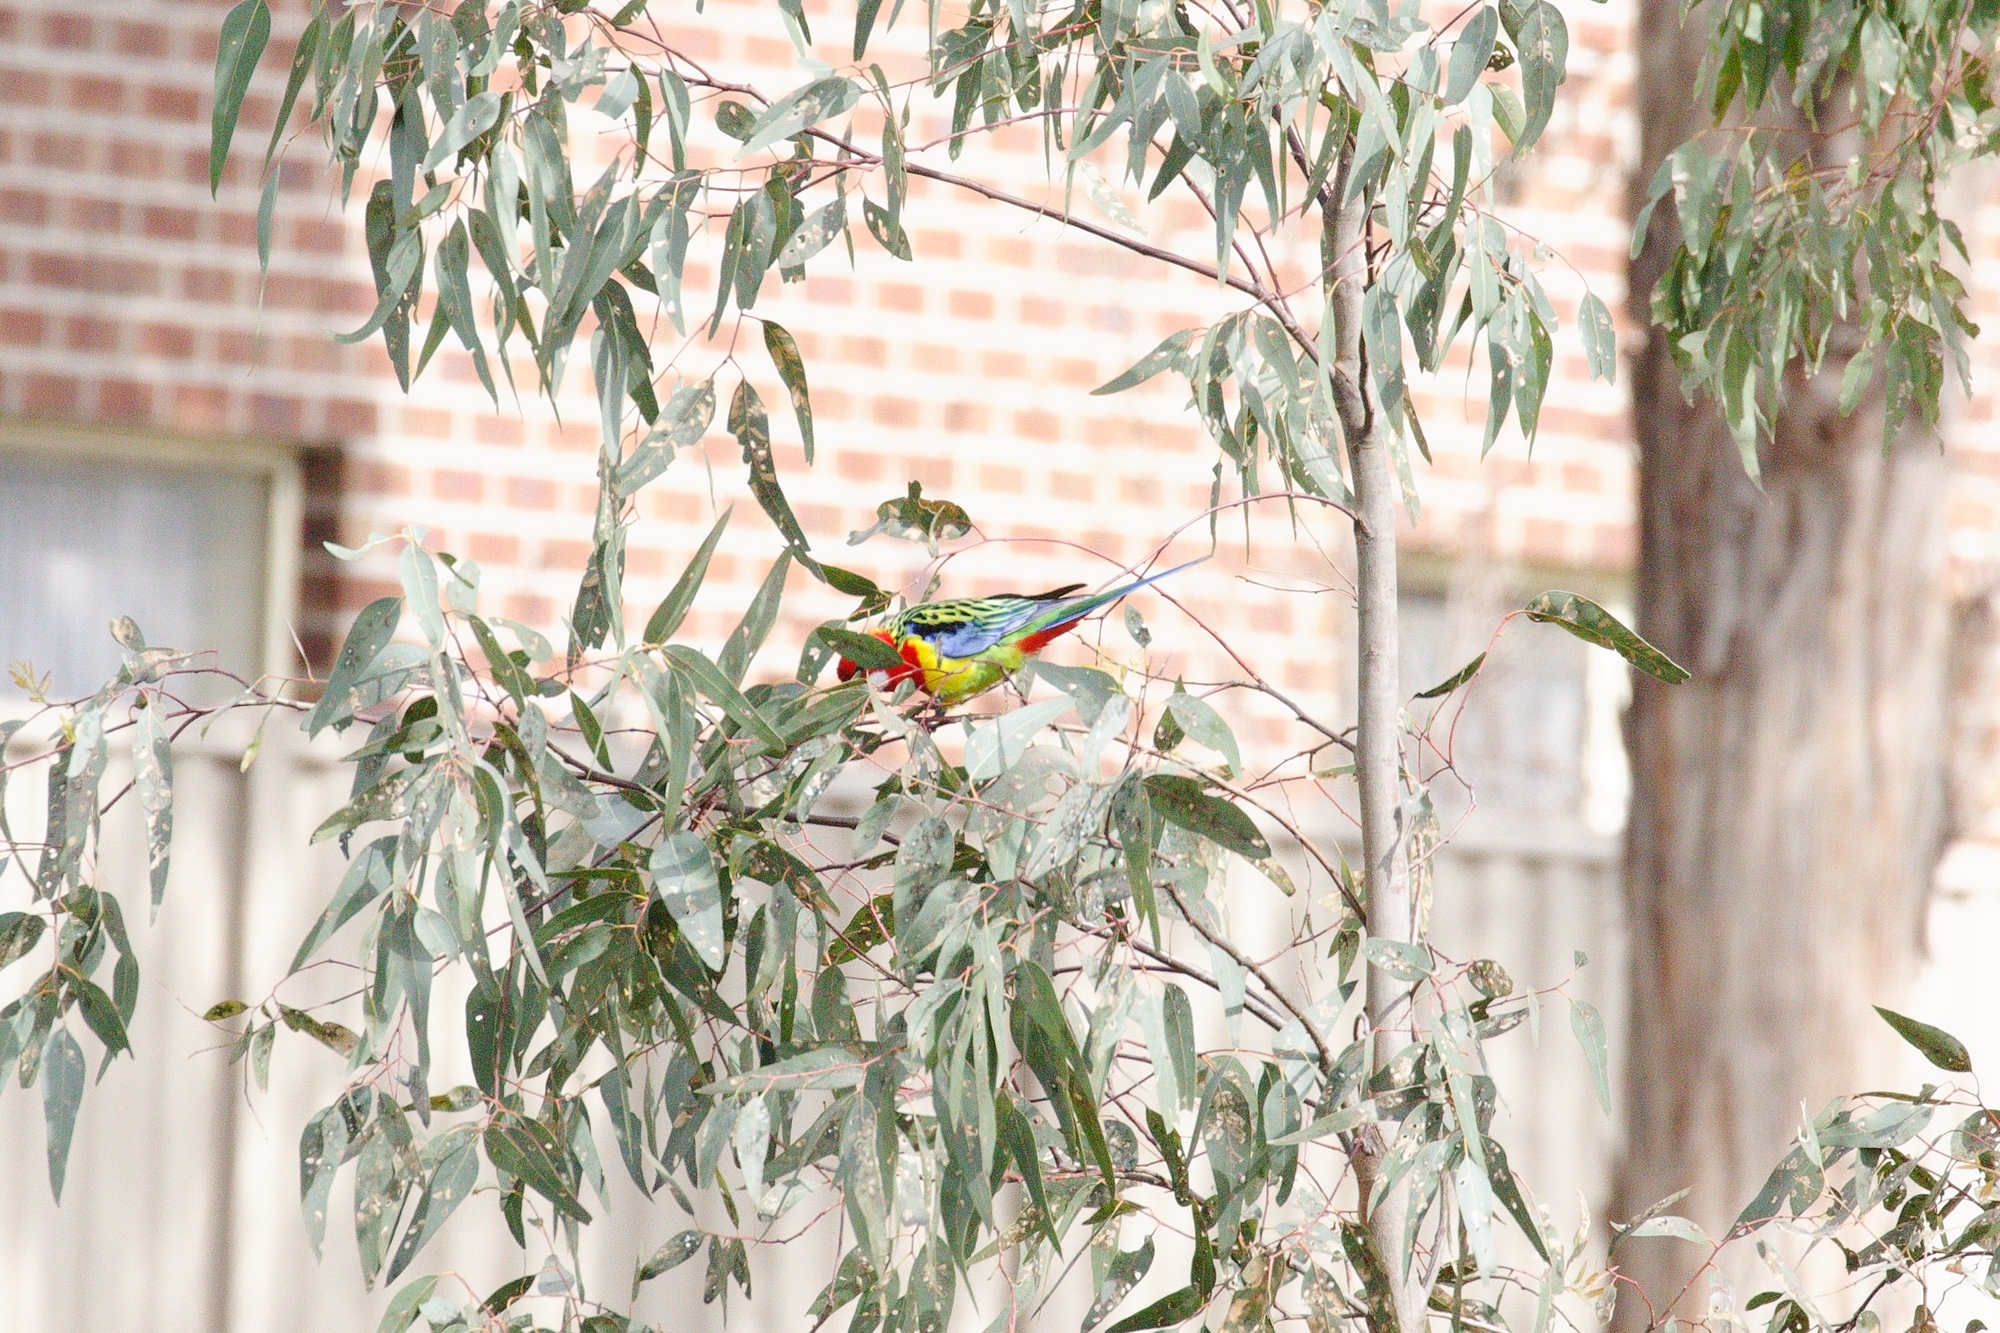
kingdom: Animalia
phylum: Chordata
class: Aves
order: Psittaciformes
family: Psittacidae
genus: Platycercus
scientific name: Platycercus eximius
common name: Eastern rosella
